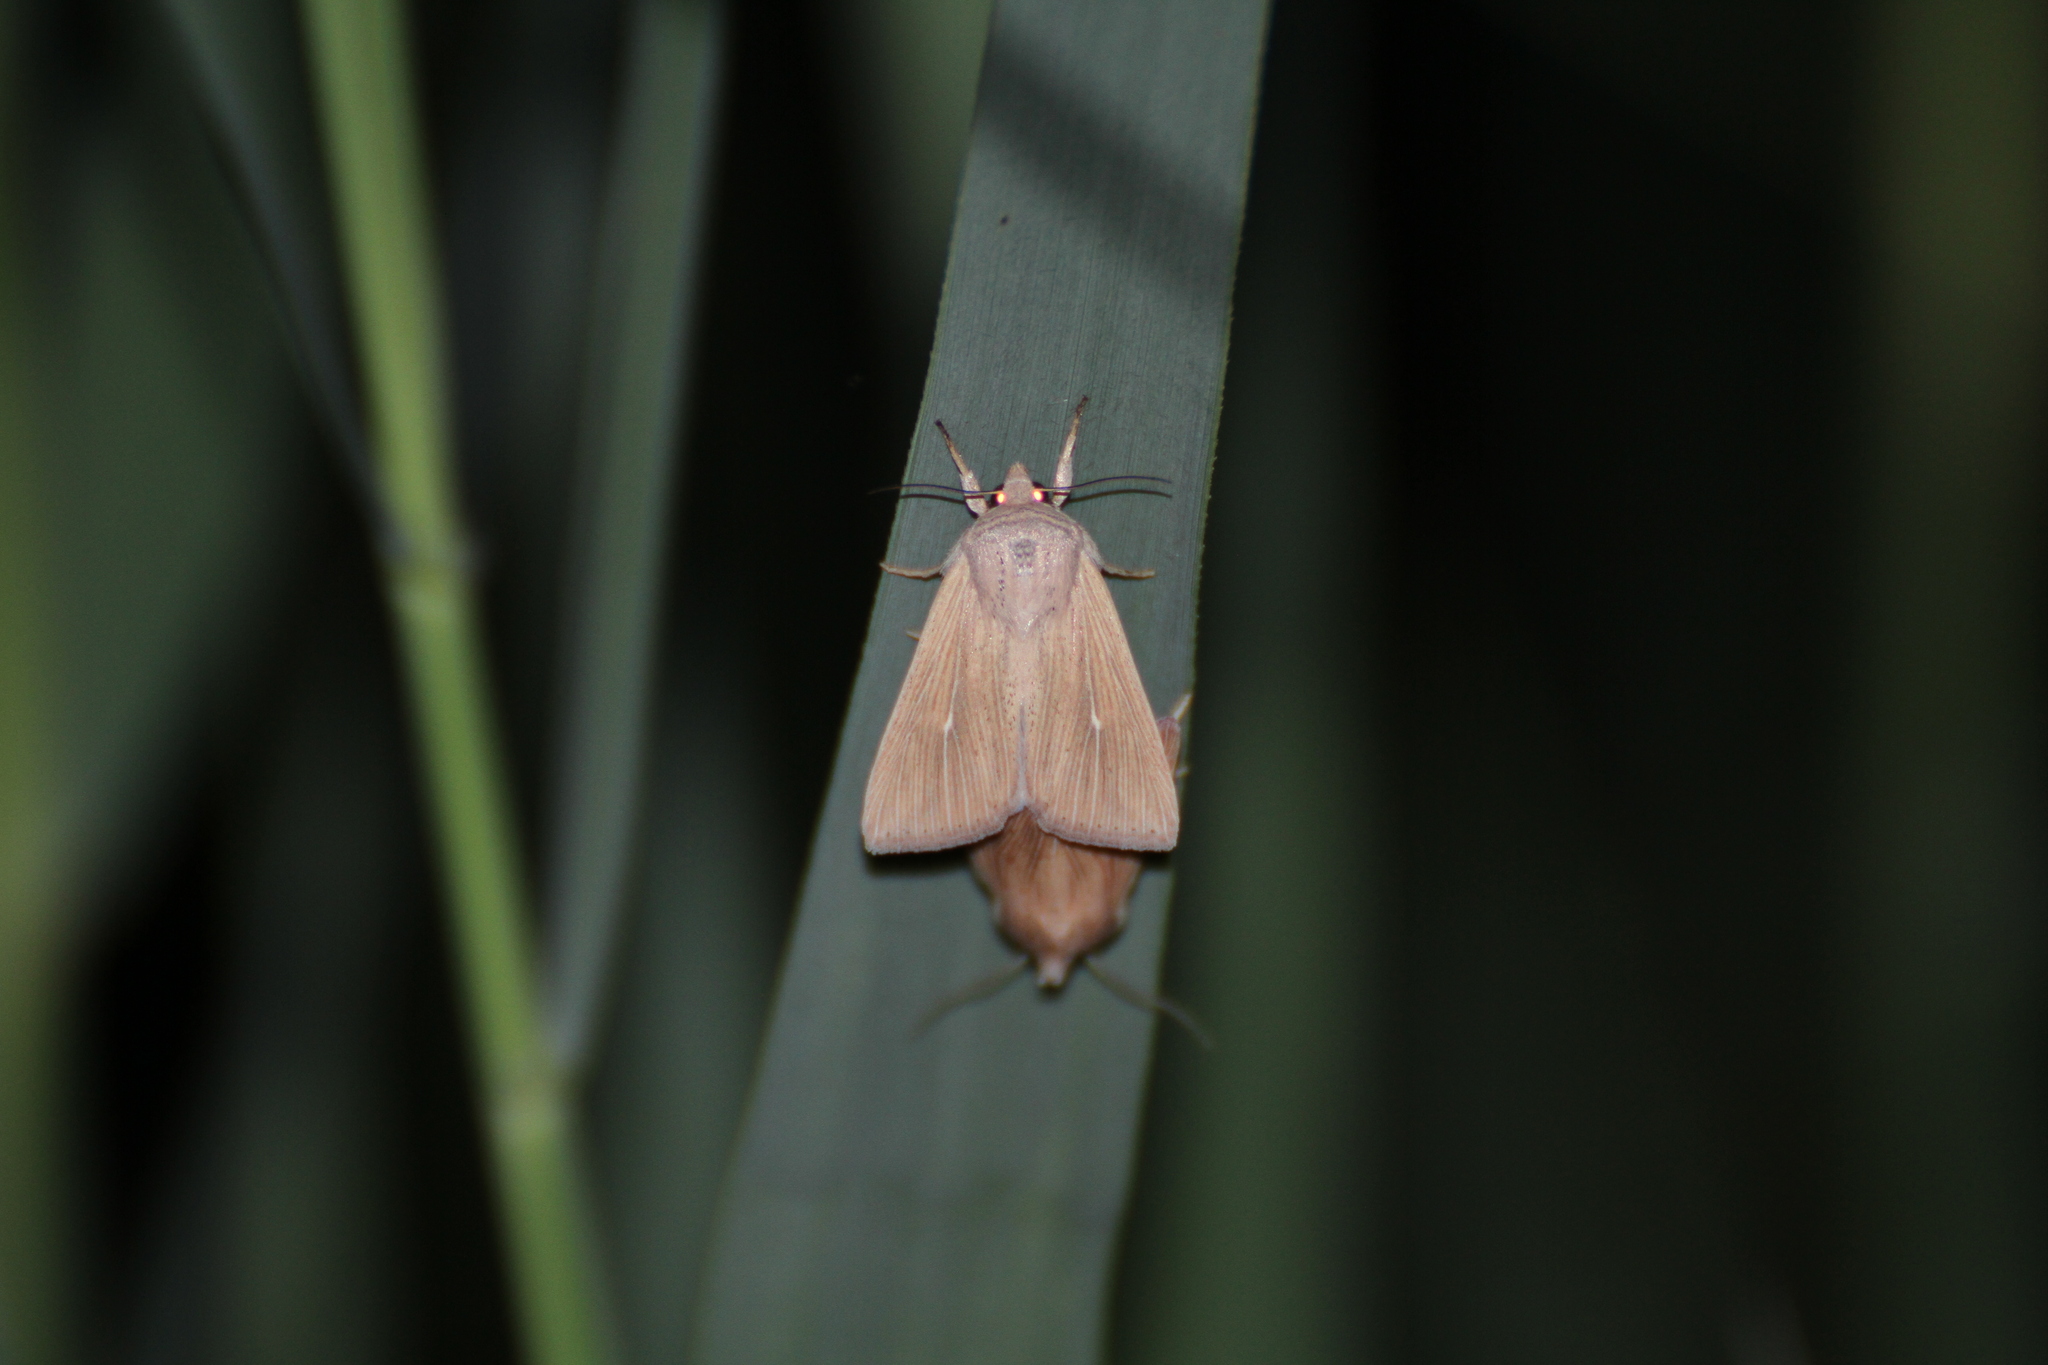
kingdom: Animalia
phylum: Arthropoda
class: Insecta
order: Lepidoptera
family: Noctuidae
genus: Mythimna
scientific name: Mythimna congrua
